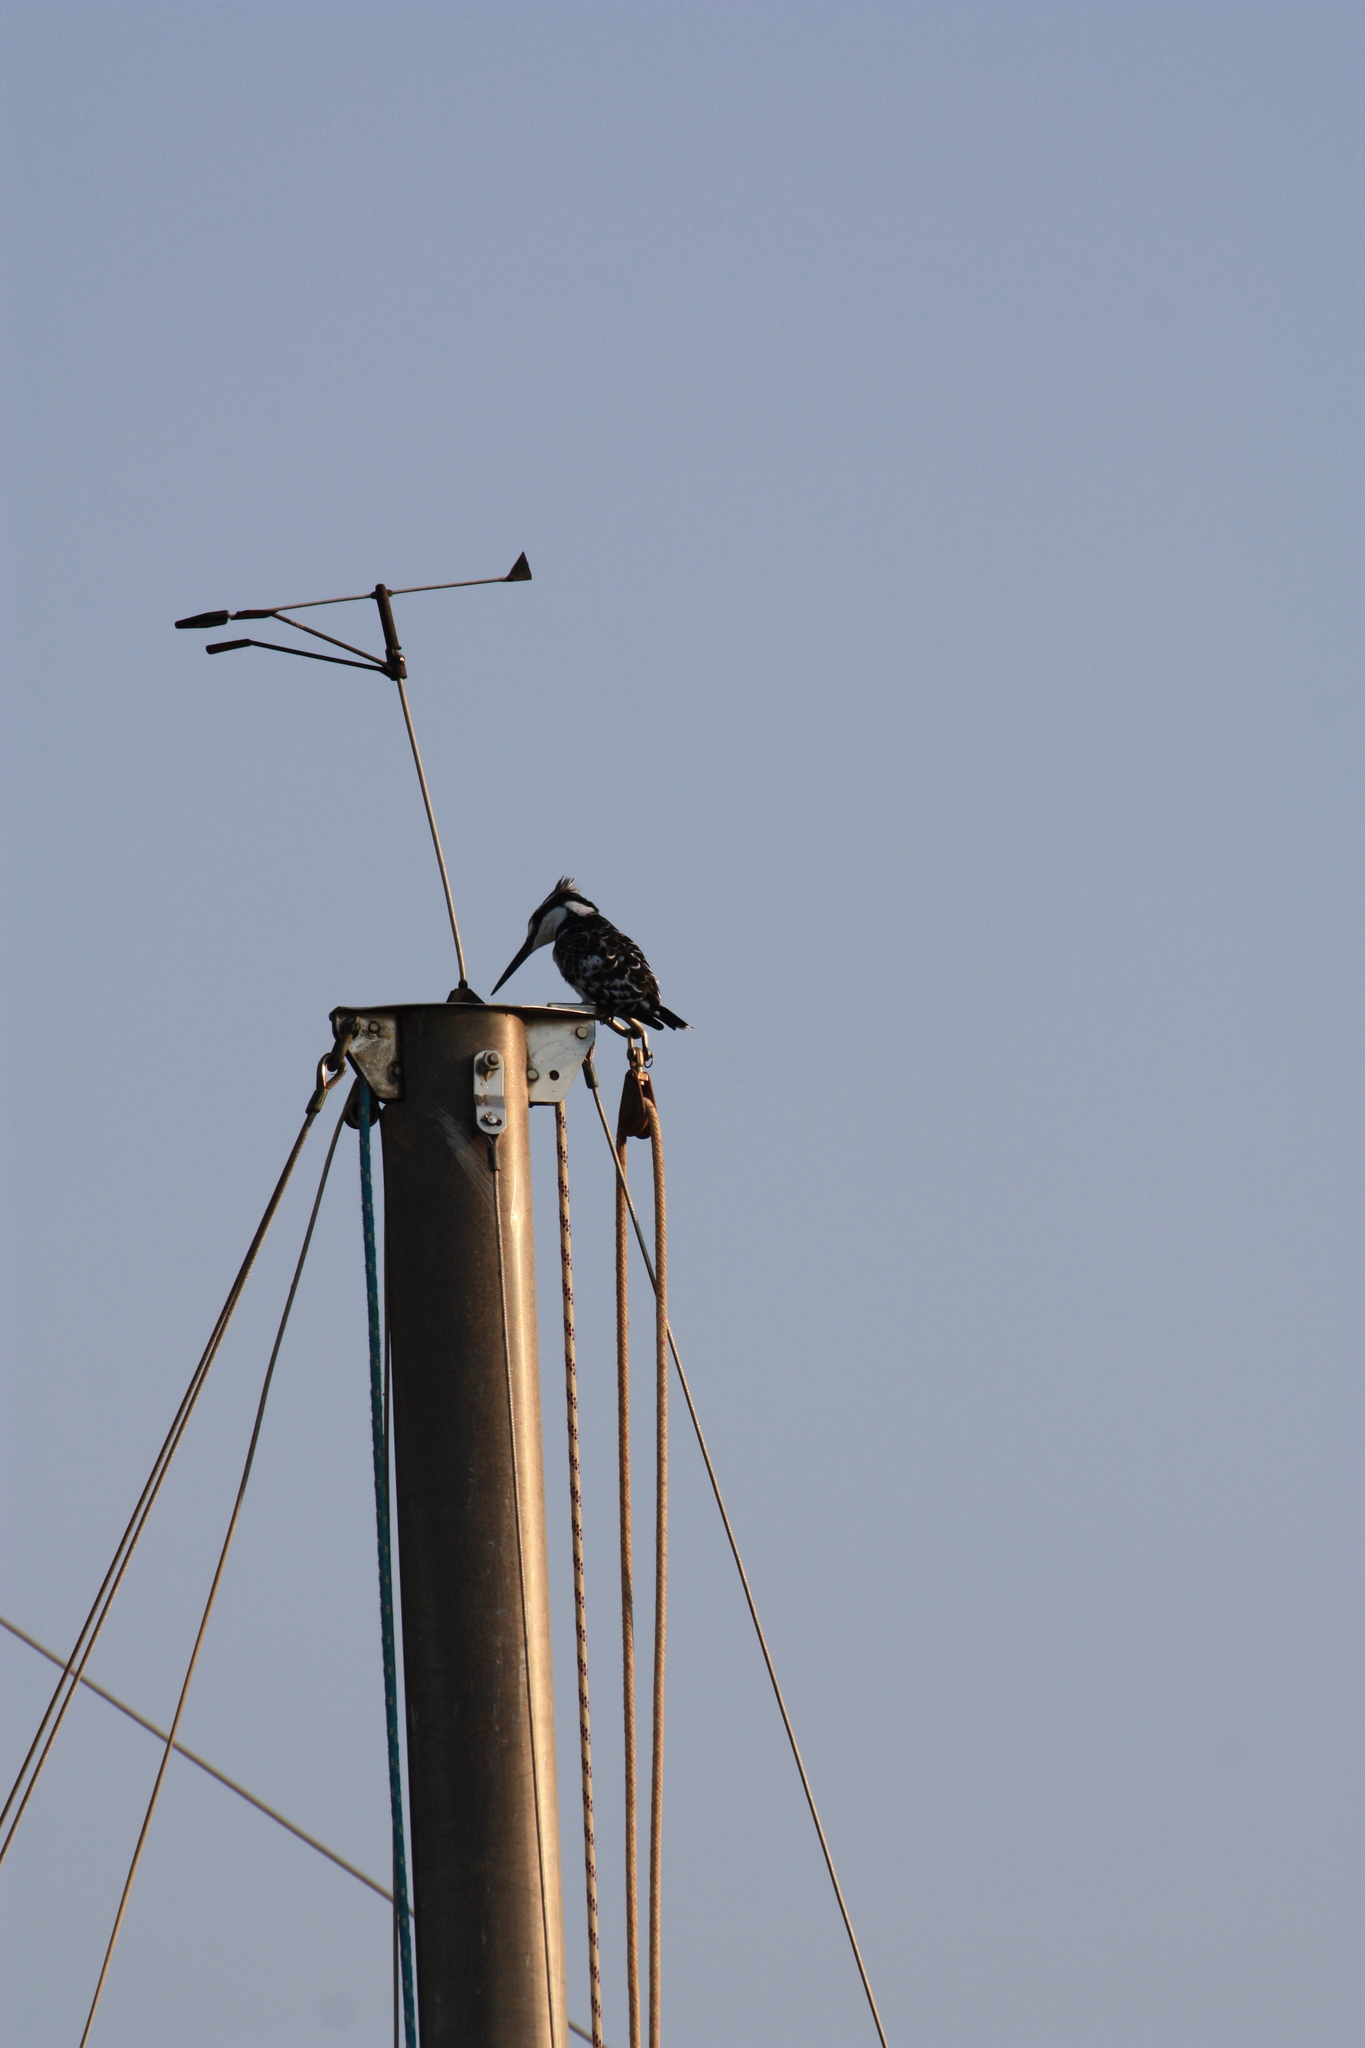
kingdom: Animalia
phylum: Chordata
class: Aves
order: Coraciiformes
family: Alcedinidae
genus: Ceryle
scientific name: Ceryle rudis
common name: Pied kingfisher
